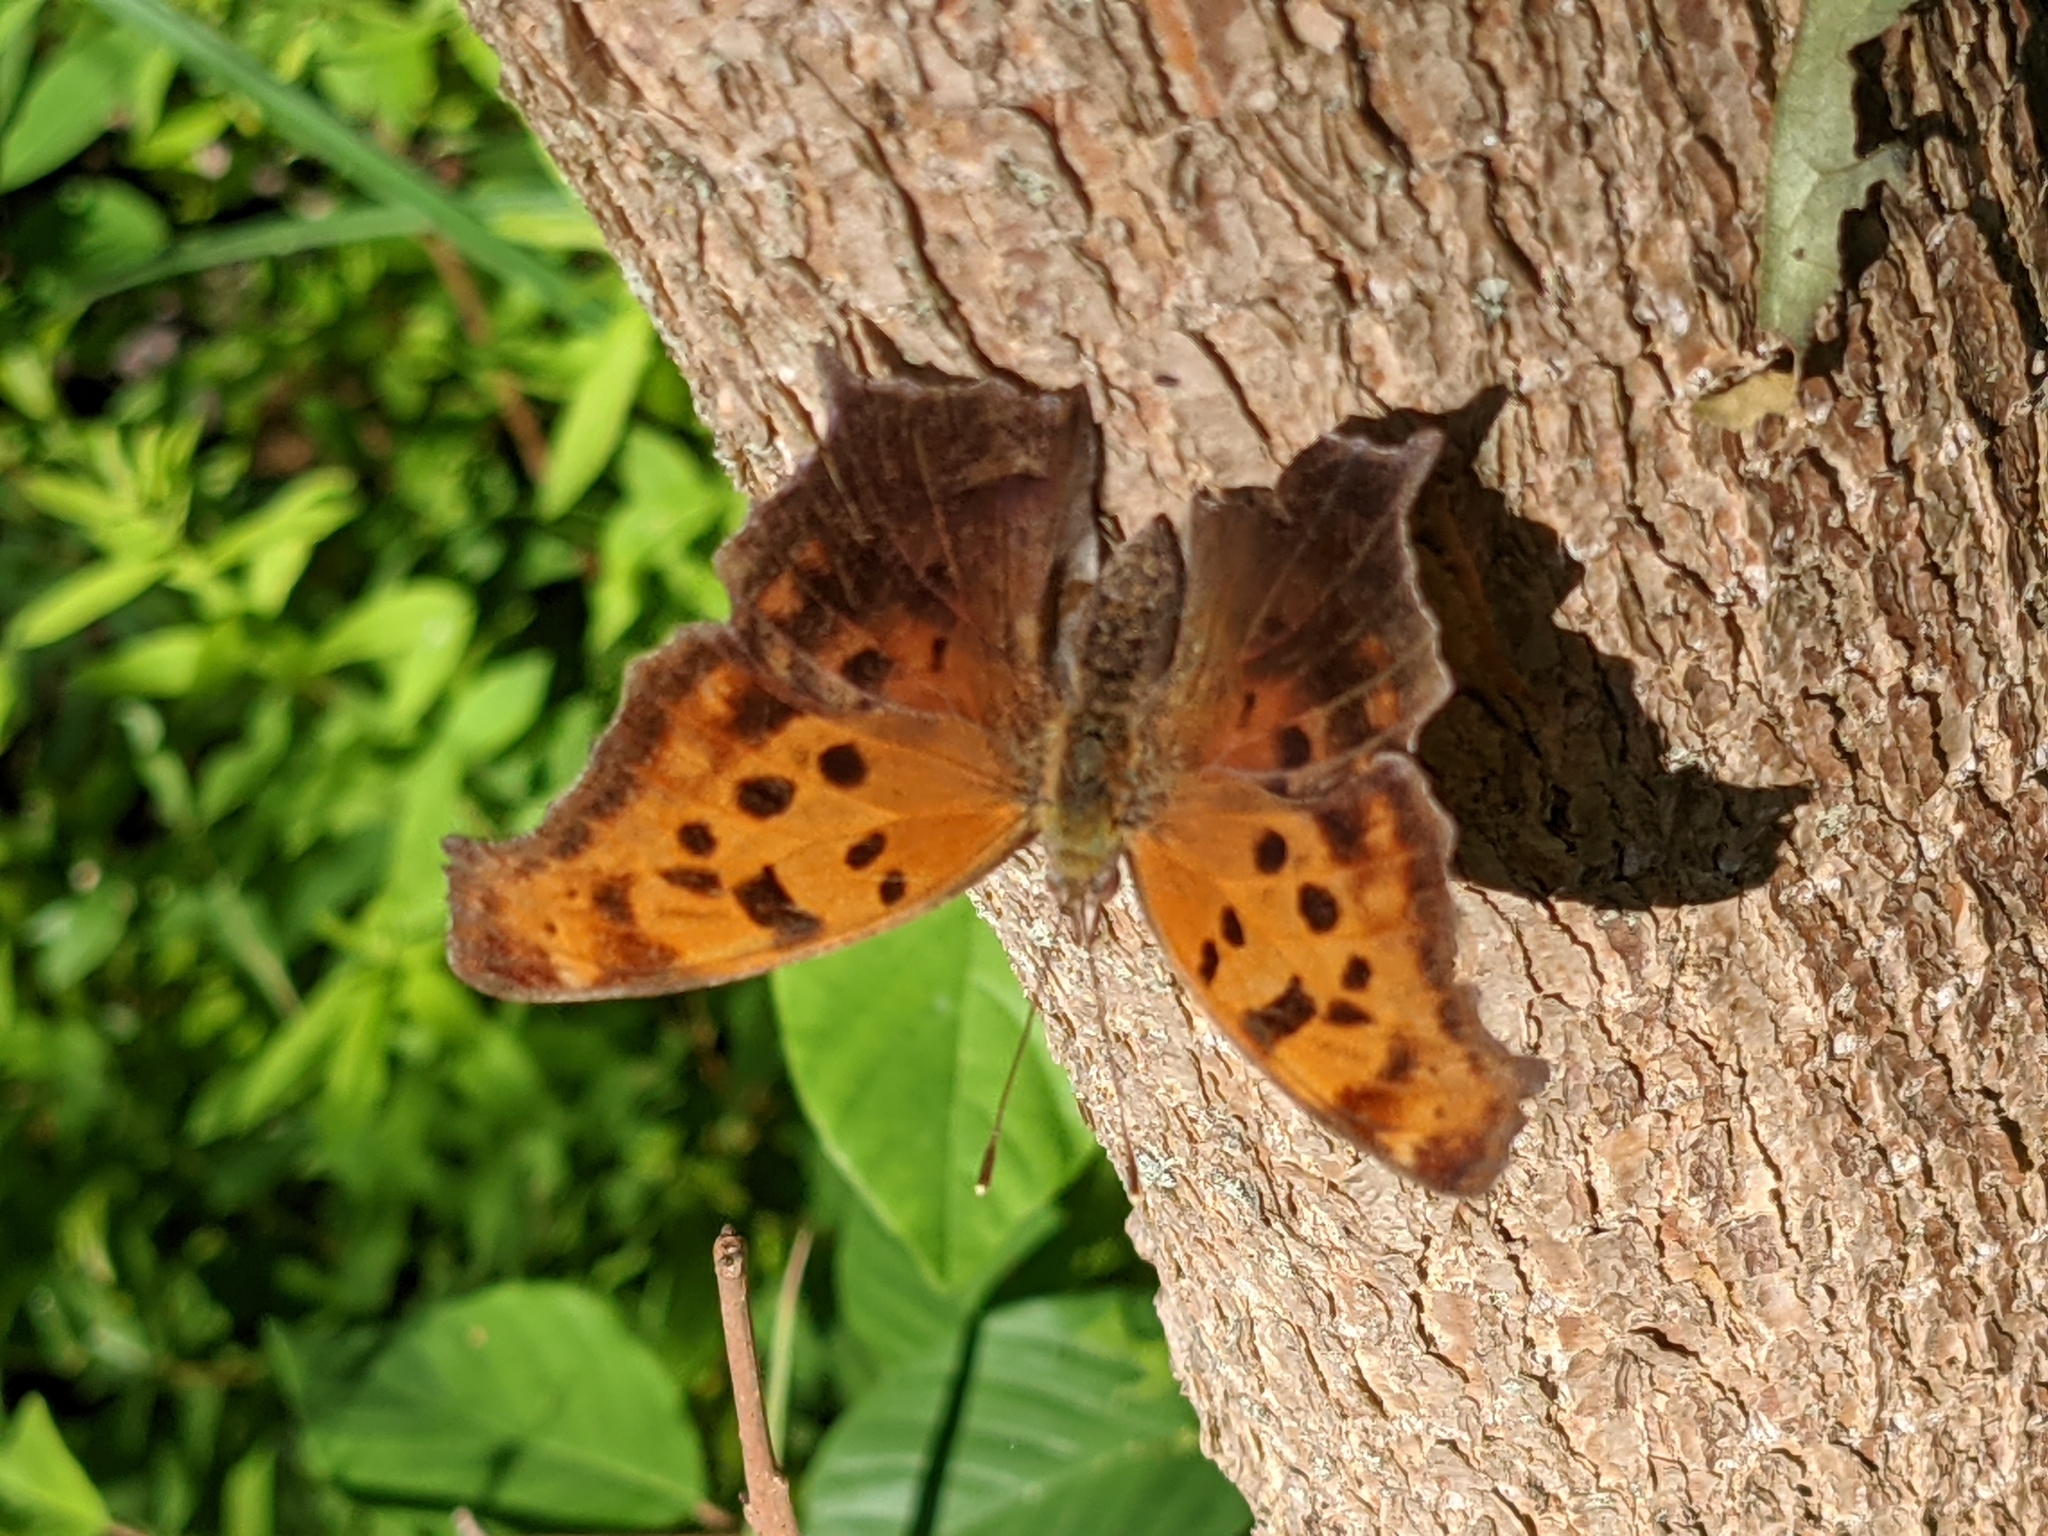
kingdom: Animalia
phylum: Arthropoda
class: Insecta
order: Lepidoptera
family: Nymphalidae
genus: Polygonia
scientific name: Polygonia interrogationis
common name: Question mark
